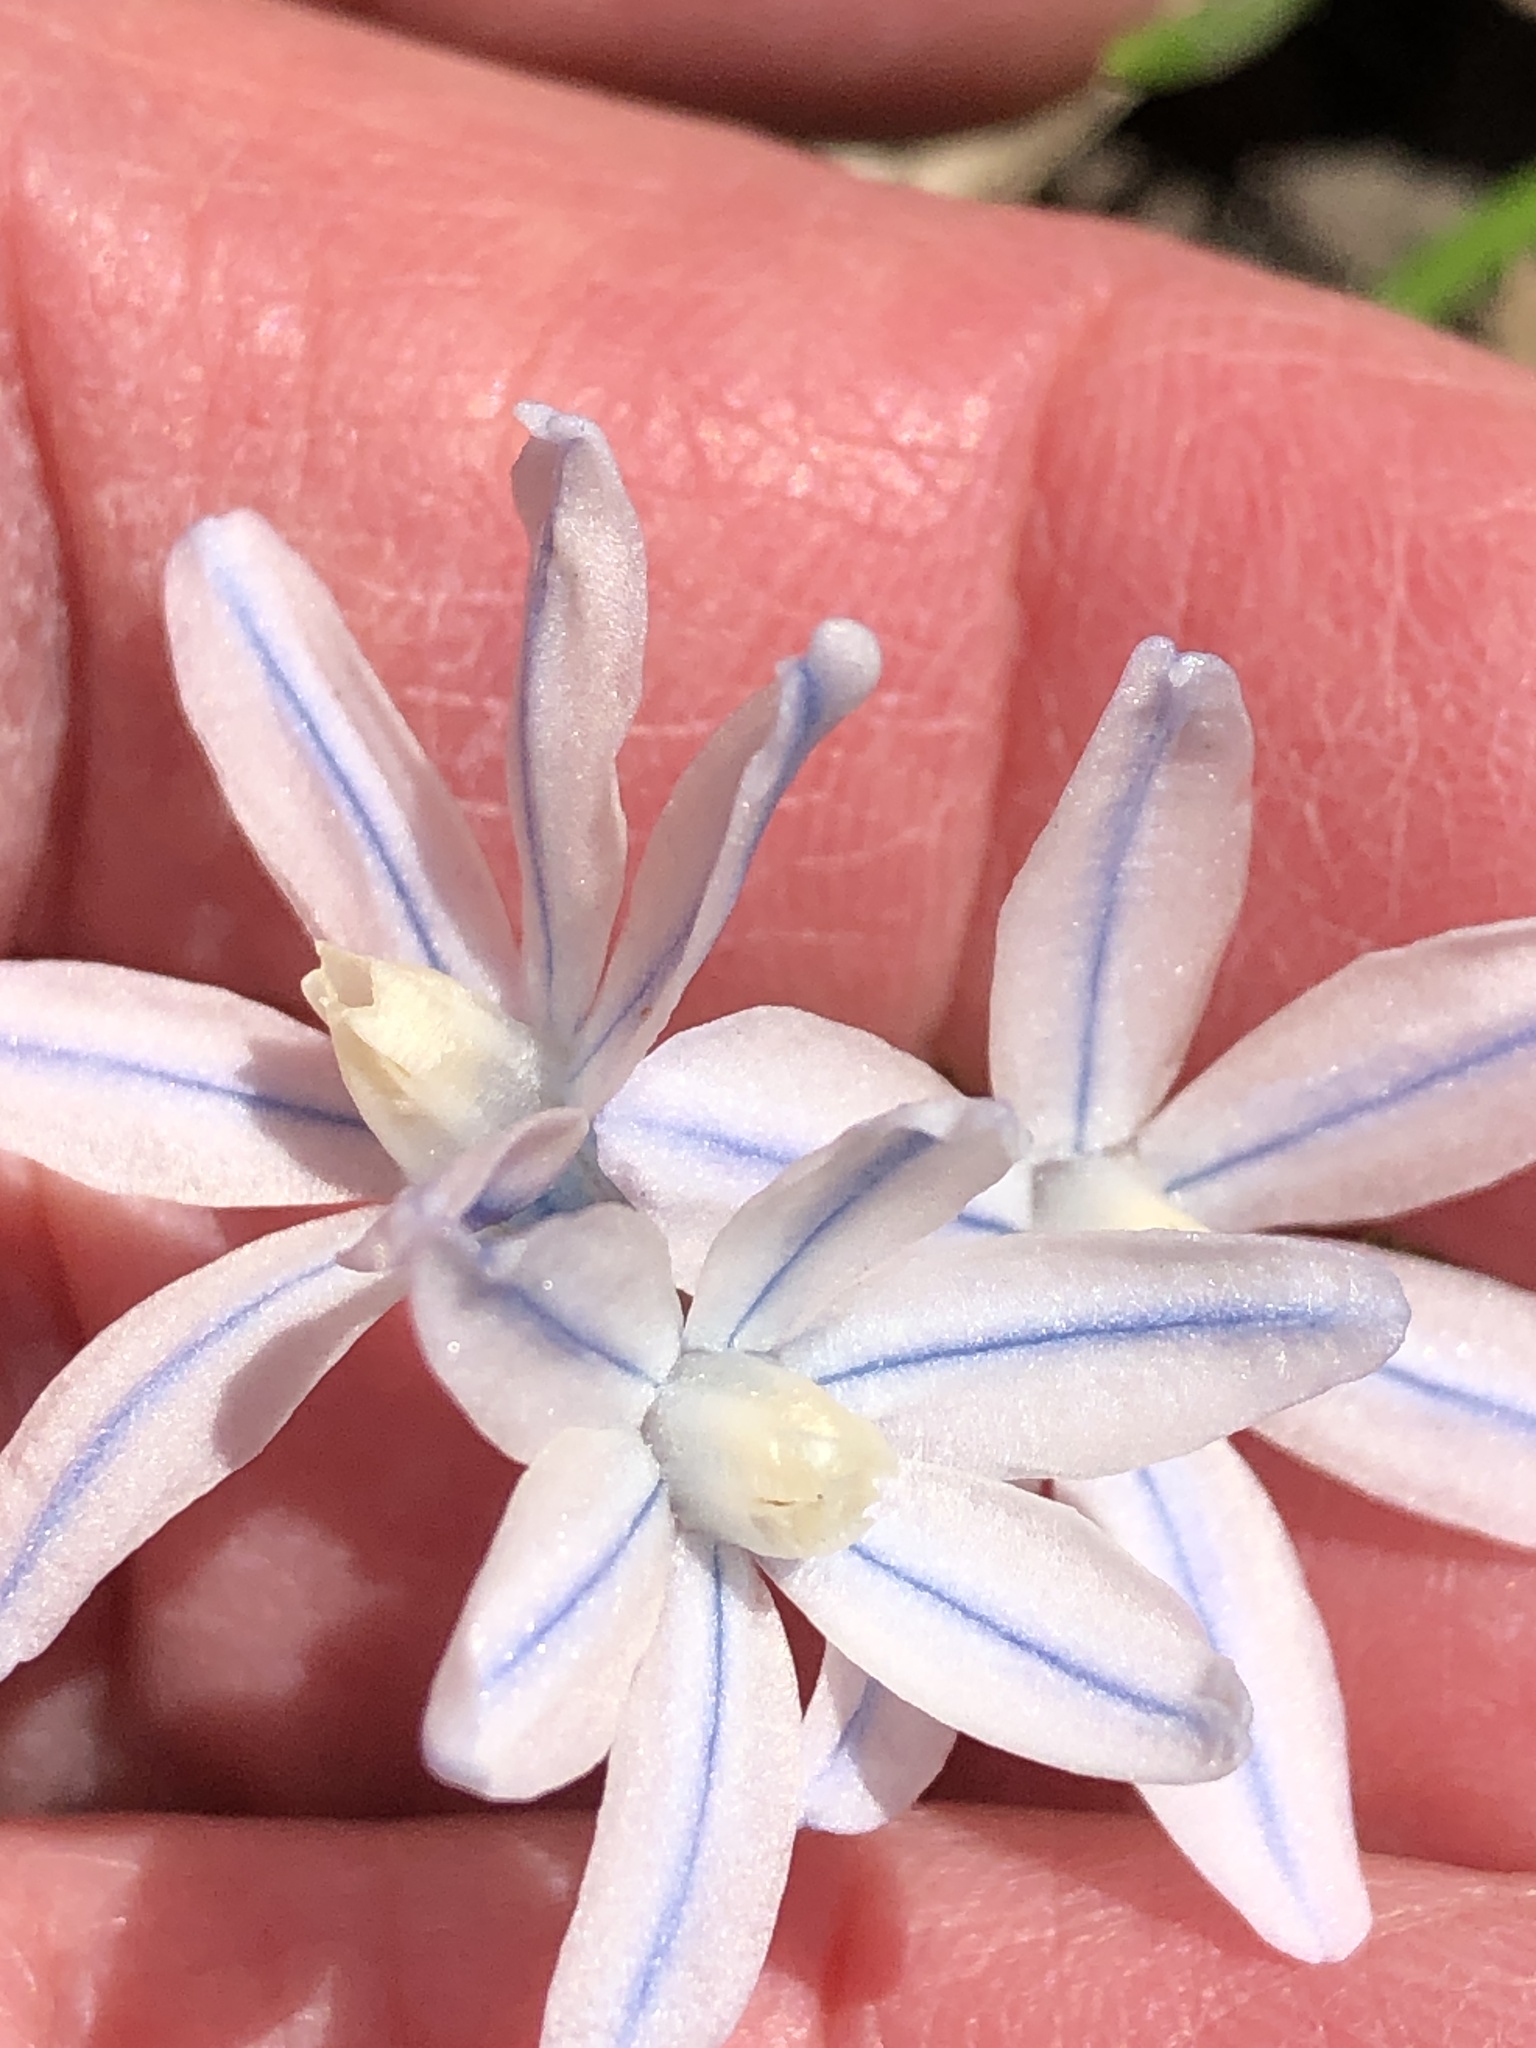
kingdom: Plantae
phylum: Tracheophyta
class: Liliopsida
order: Asparagales
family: Asparagaceae
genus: Puschkinia
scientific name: Puschkinia scilloides
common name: Striped squill
